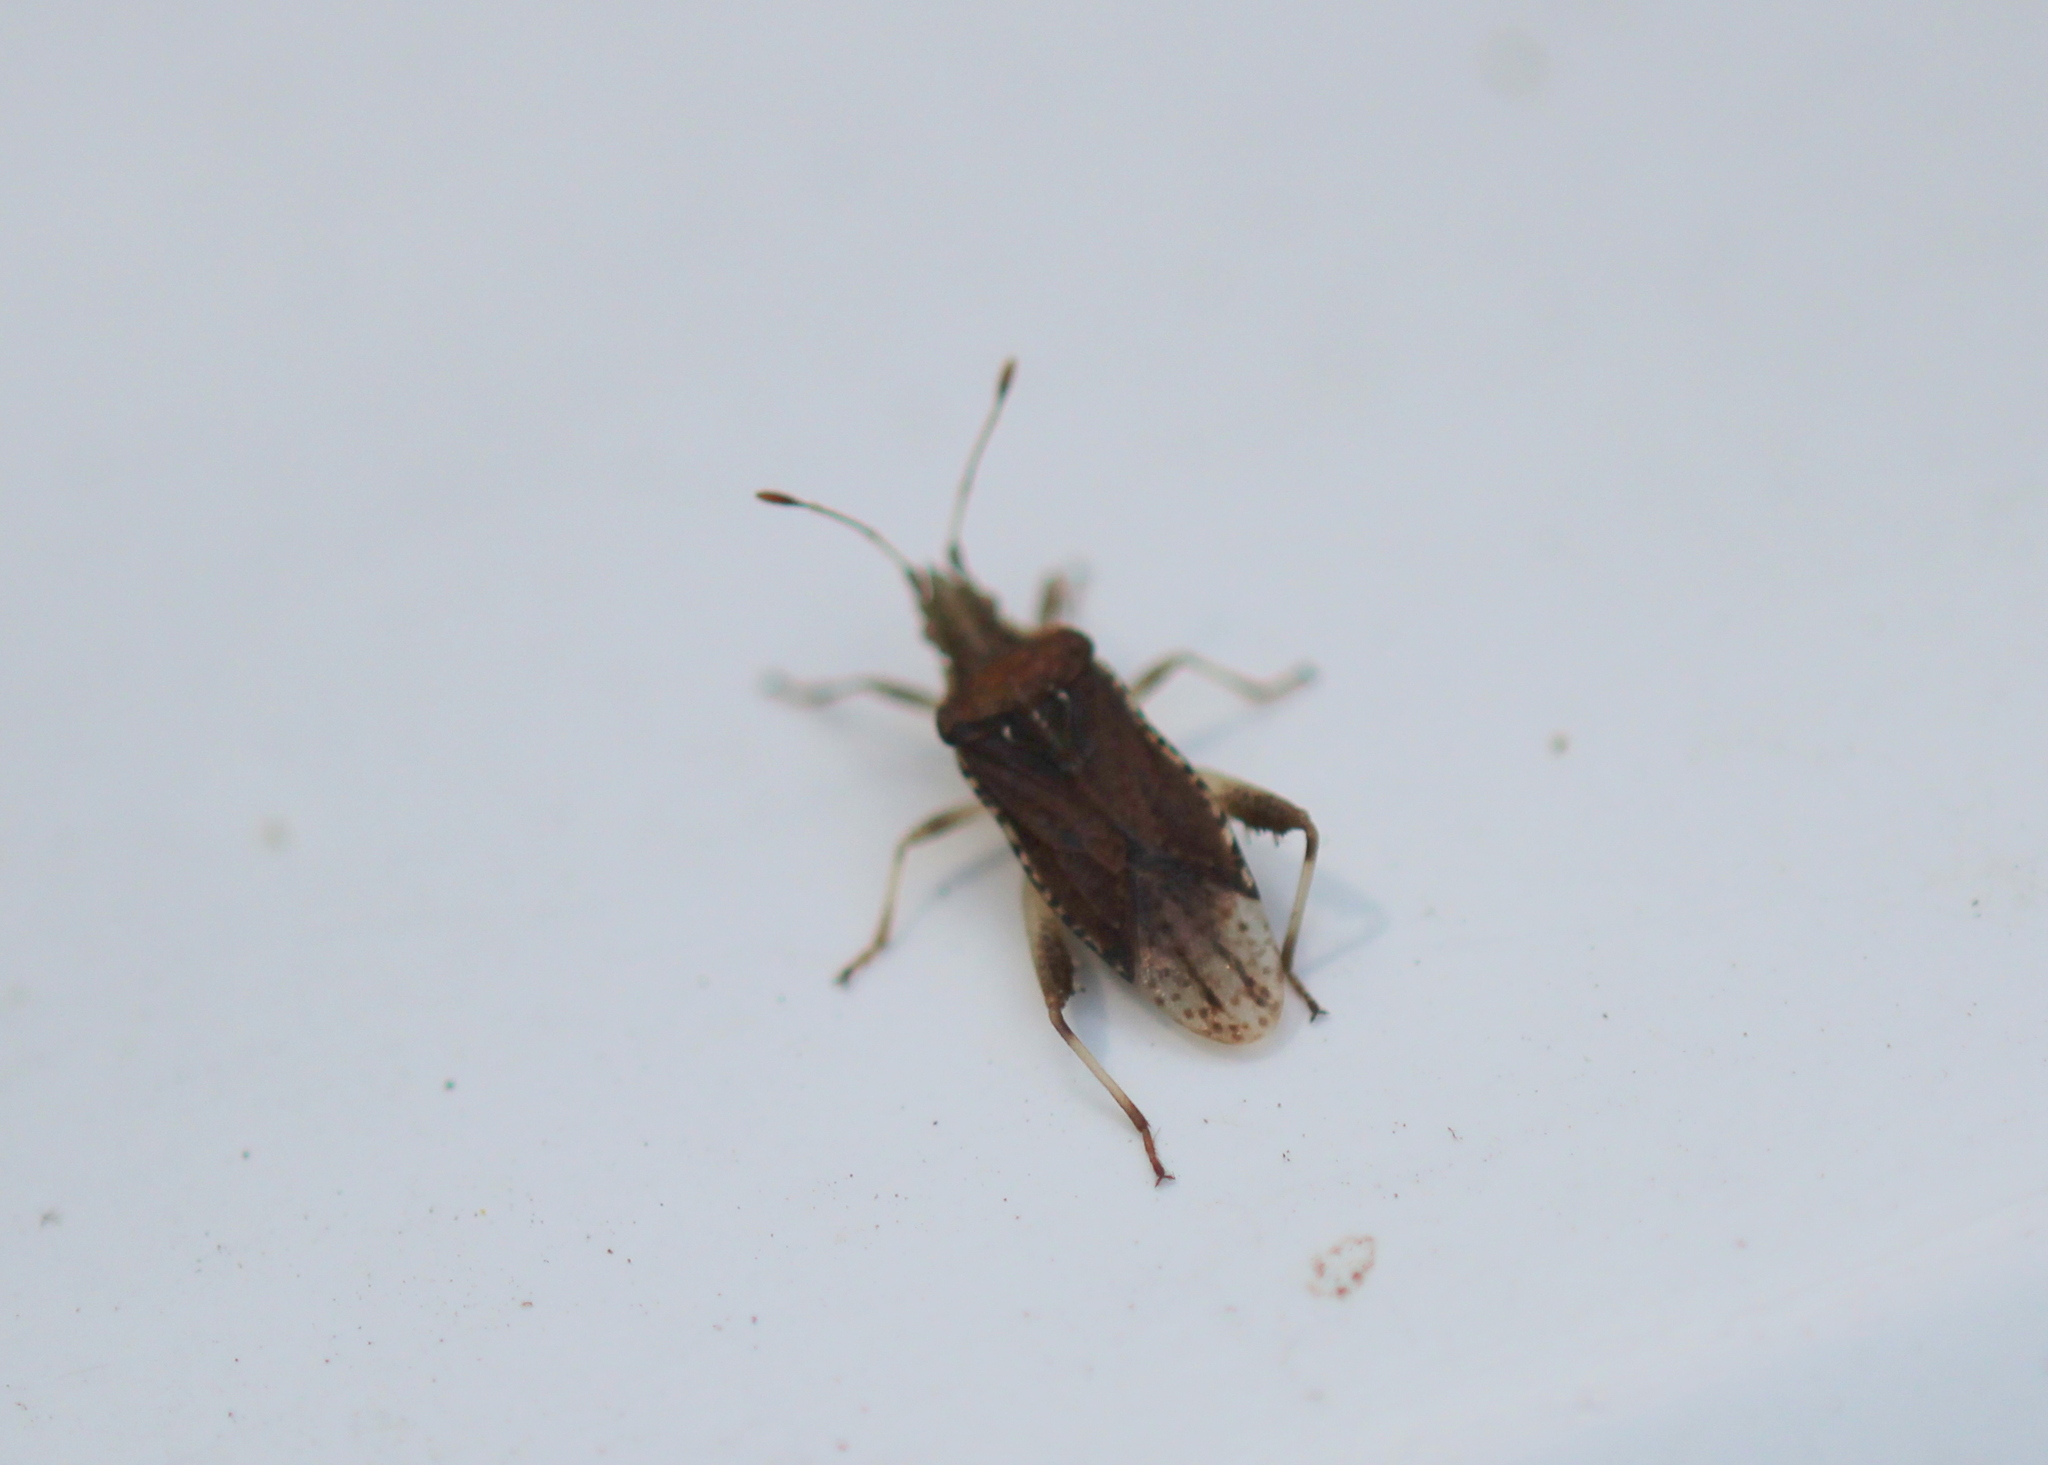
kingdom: Animalia
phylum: Arthropoda
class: Insecta
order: Hemiptera
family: Rhopalidae
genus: Harmostes
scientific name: Harmostes fraterculus
